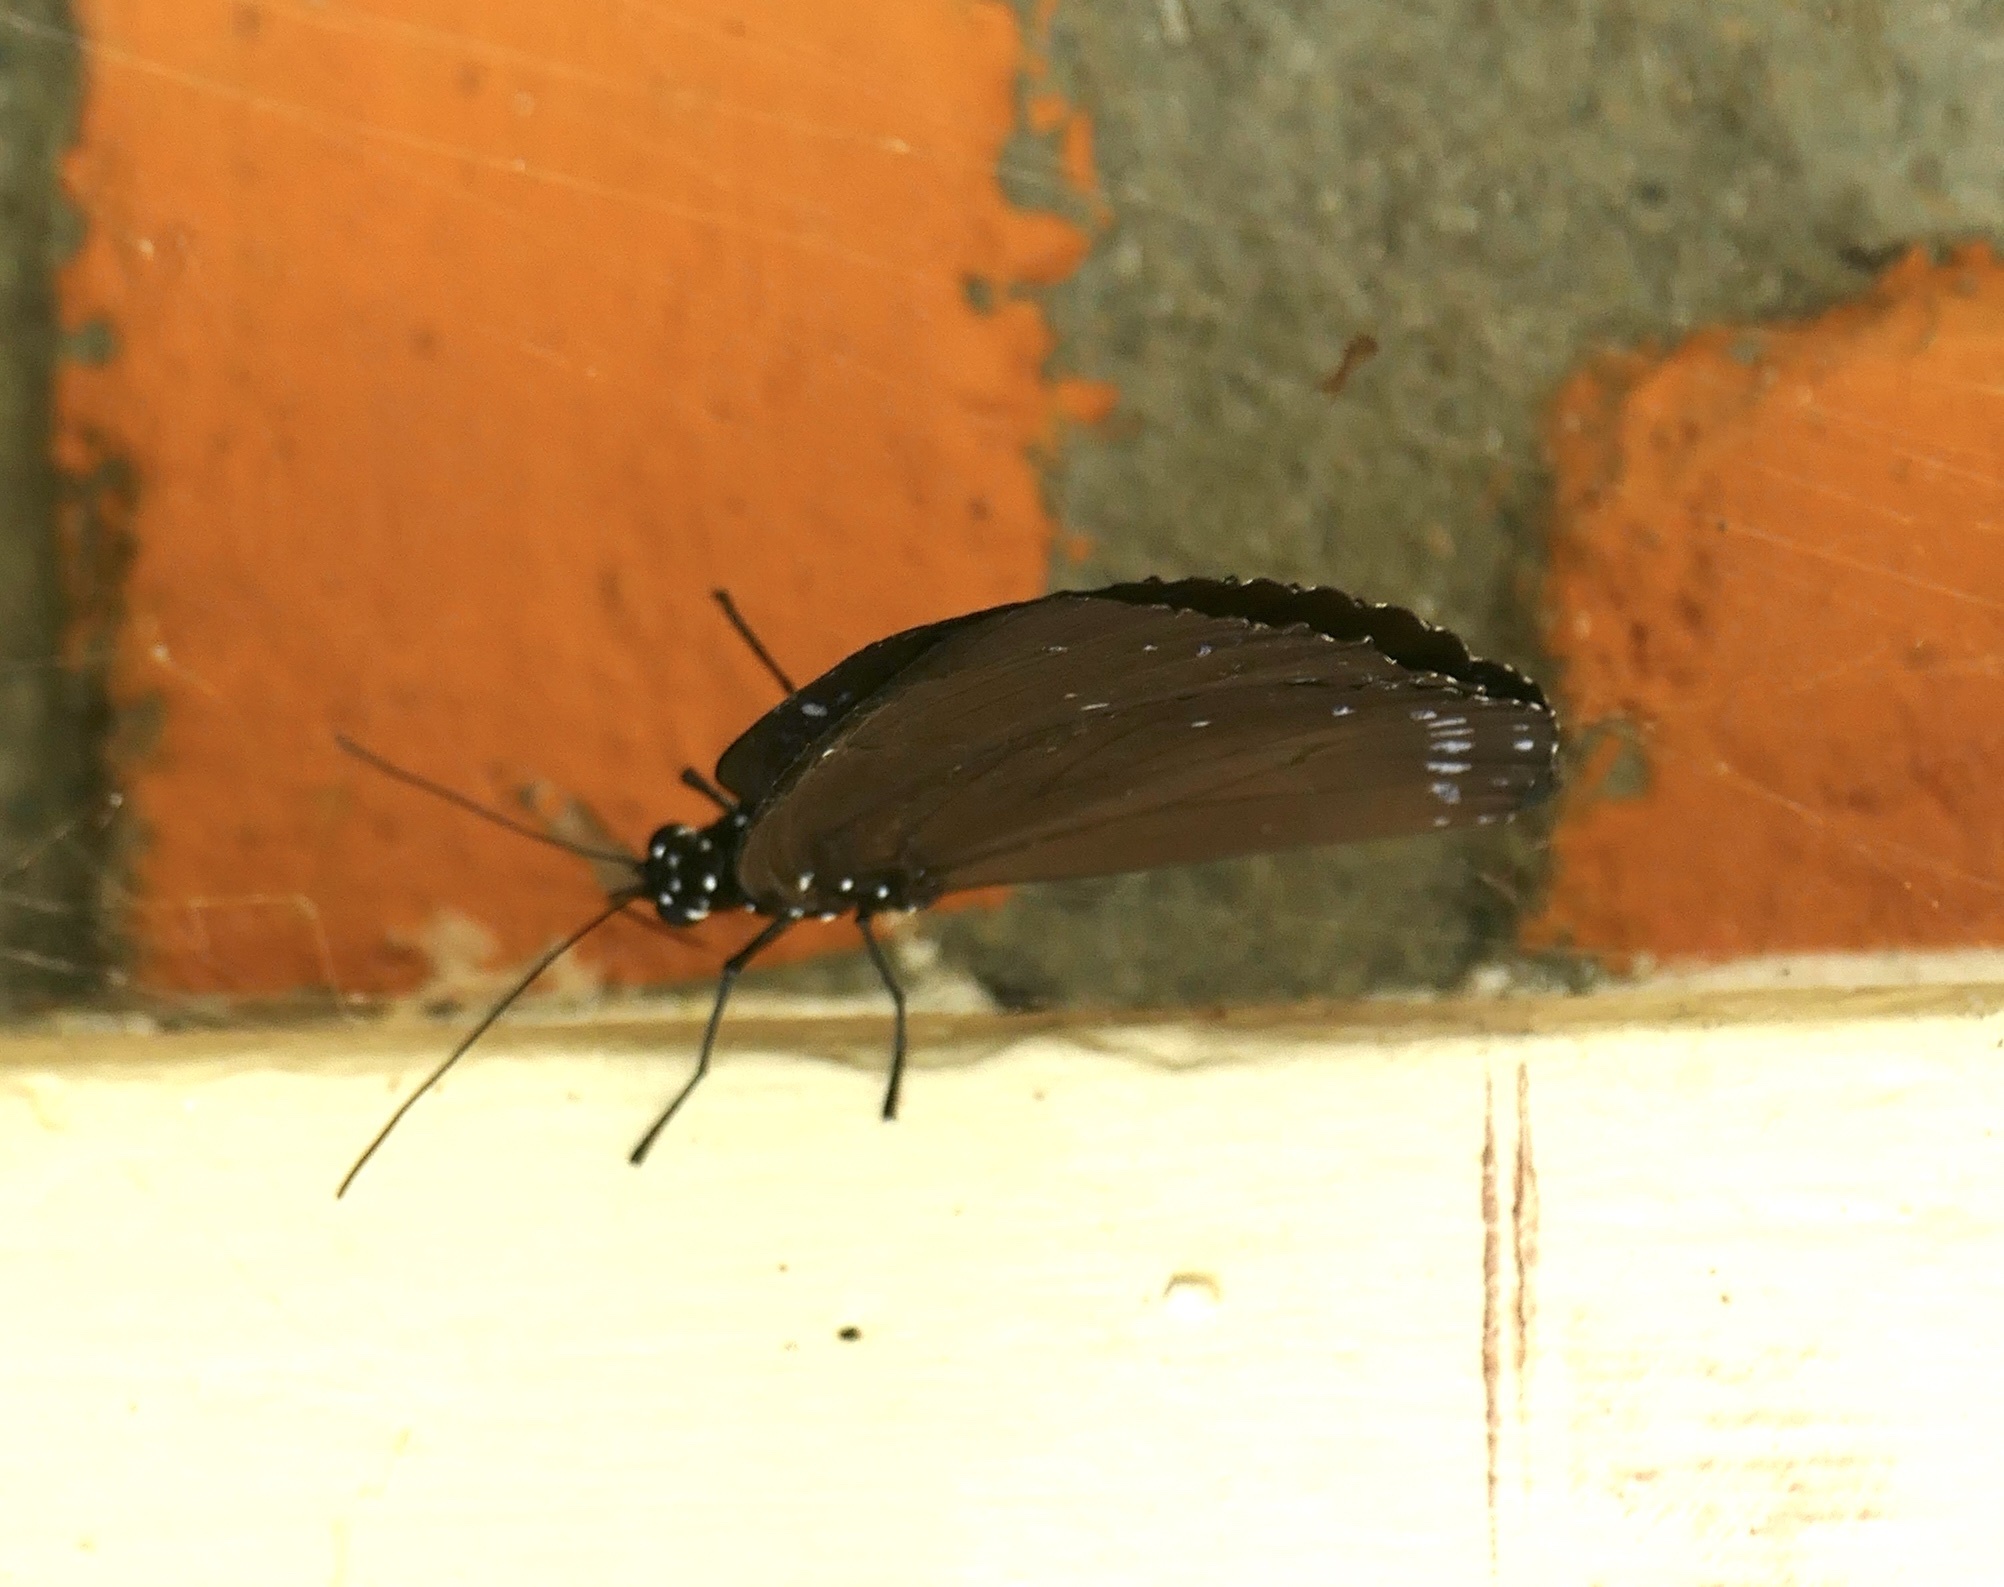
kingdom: Animalia
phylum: Arthropoda
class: Insecta
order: Lepidoptera
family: Nymphalidae
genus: Euploea
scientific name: Euploea westwoodii
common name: Westwood's king crow
